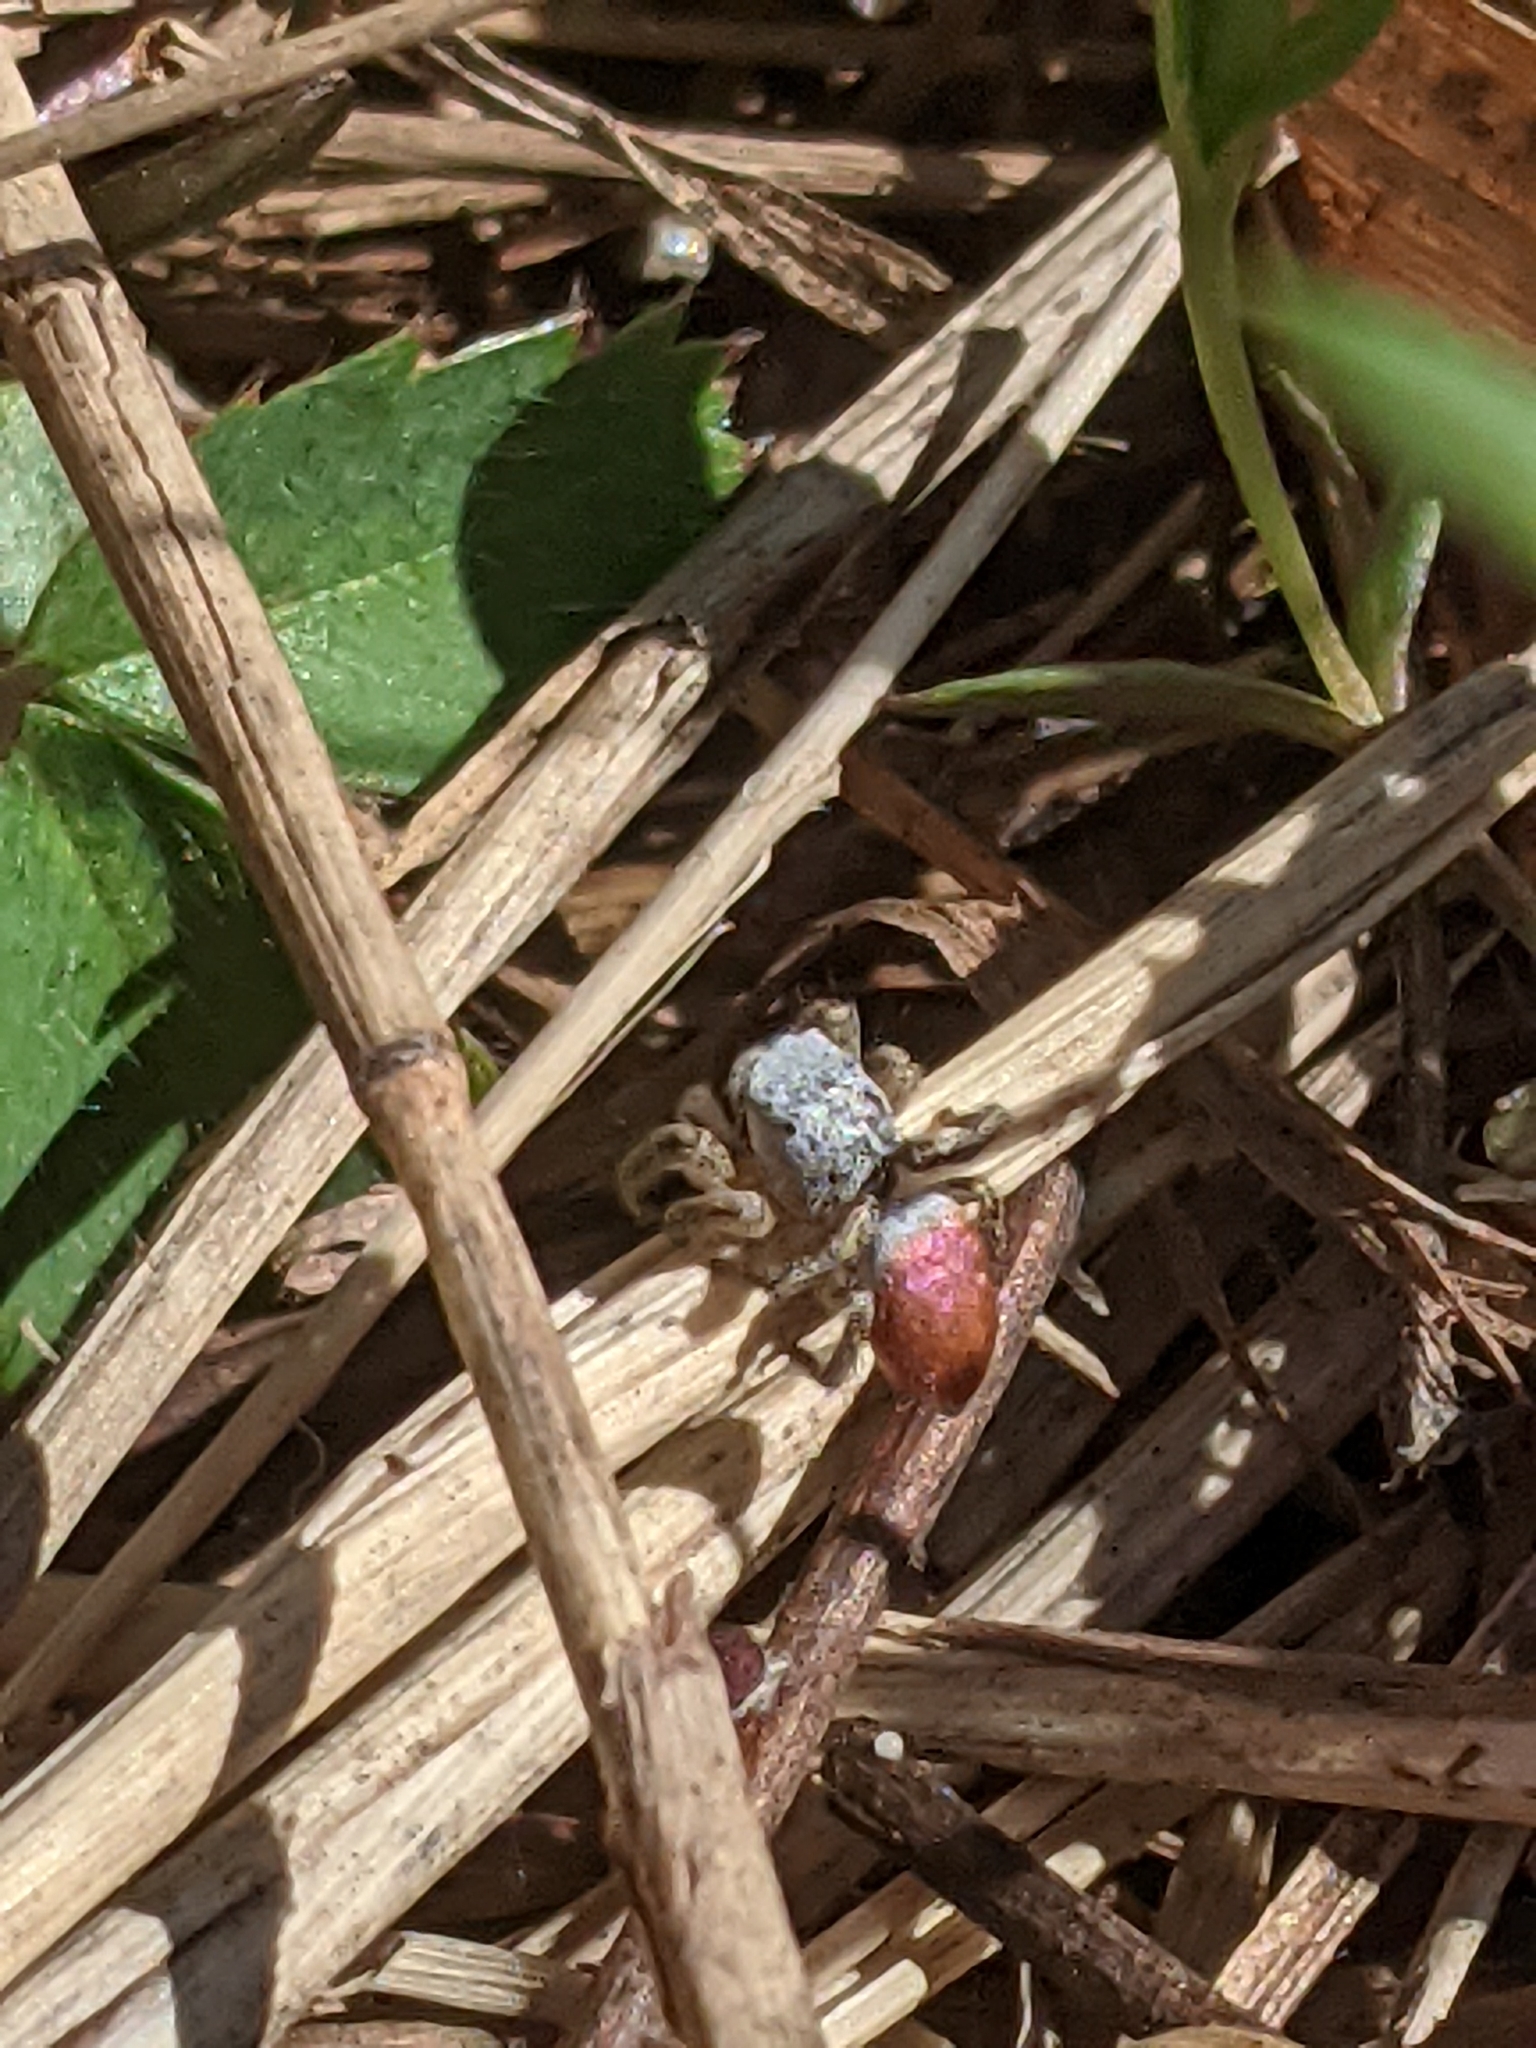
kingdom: Animalia
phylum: Arthropoda
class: Arachnida
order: Araneae
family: Salticidae
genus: Habronattus
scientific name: Habronattus decorus
